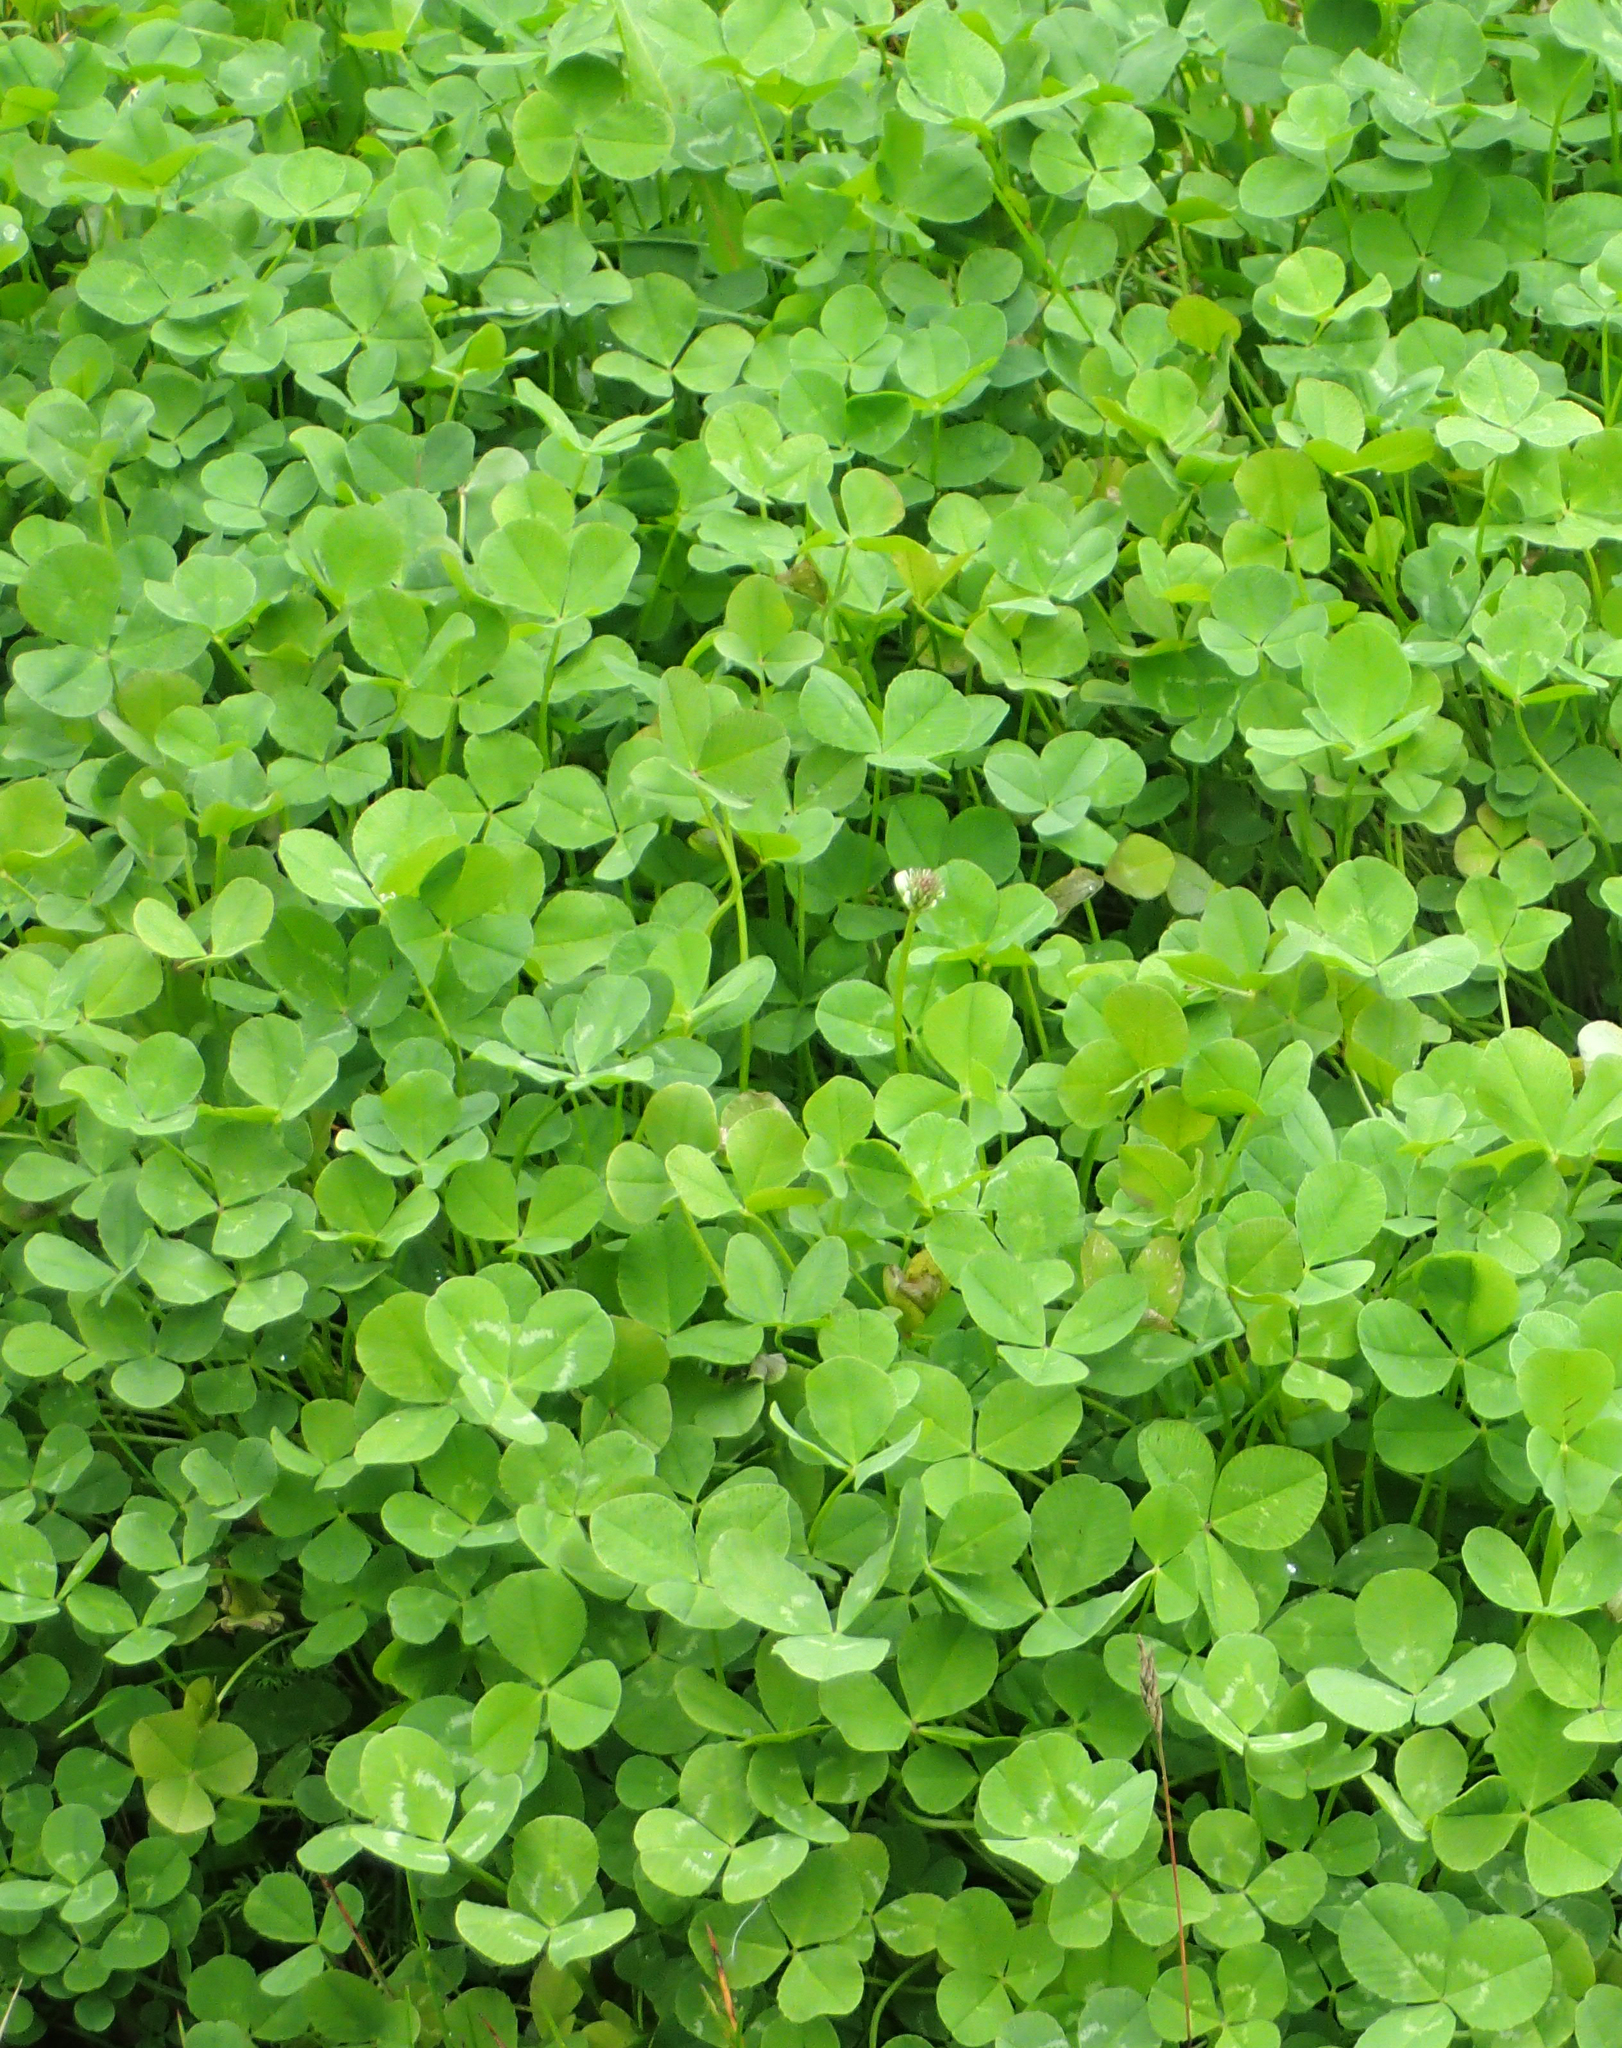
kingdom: Plantae
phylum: Tracheophyta
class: Magnoliopsida
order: Fabales
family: Fabaceae
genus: Trifolium
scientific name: Trifolium repens
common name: White clover
